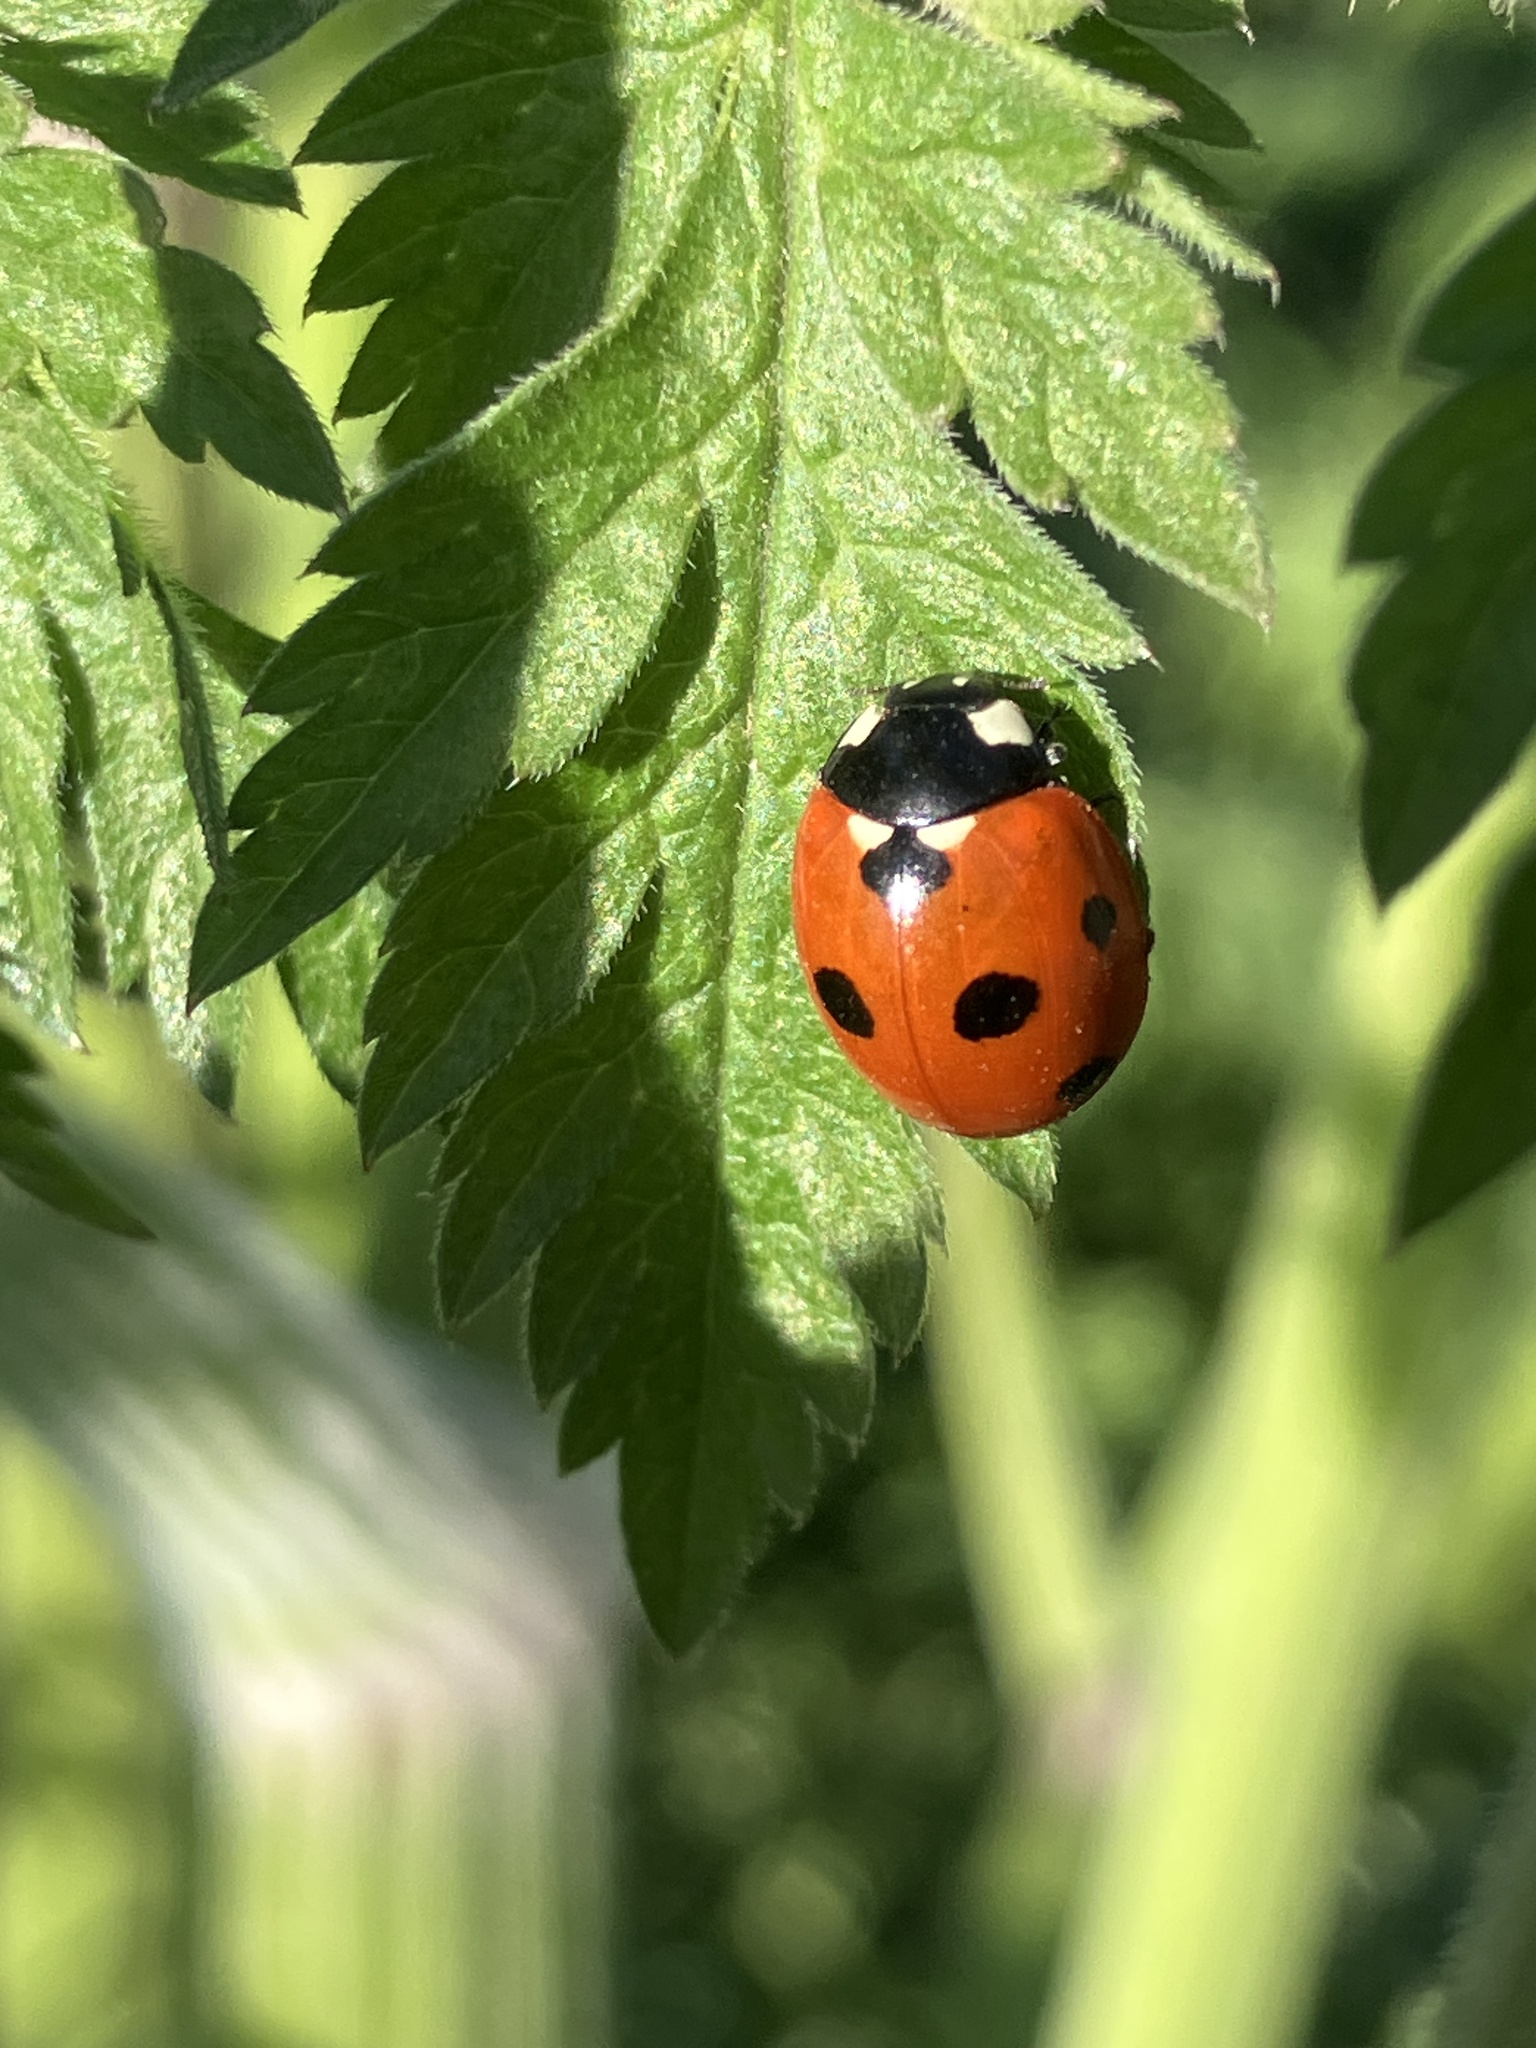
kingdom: Animalia
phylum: Arthropoda
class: Insecta
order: Coleoptera
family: Coccinellidae
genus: Coccinella
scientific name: Coccinella septempunctata
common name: Sevenspotted lady beetle
